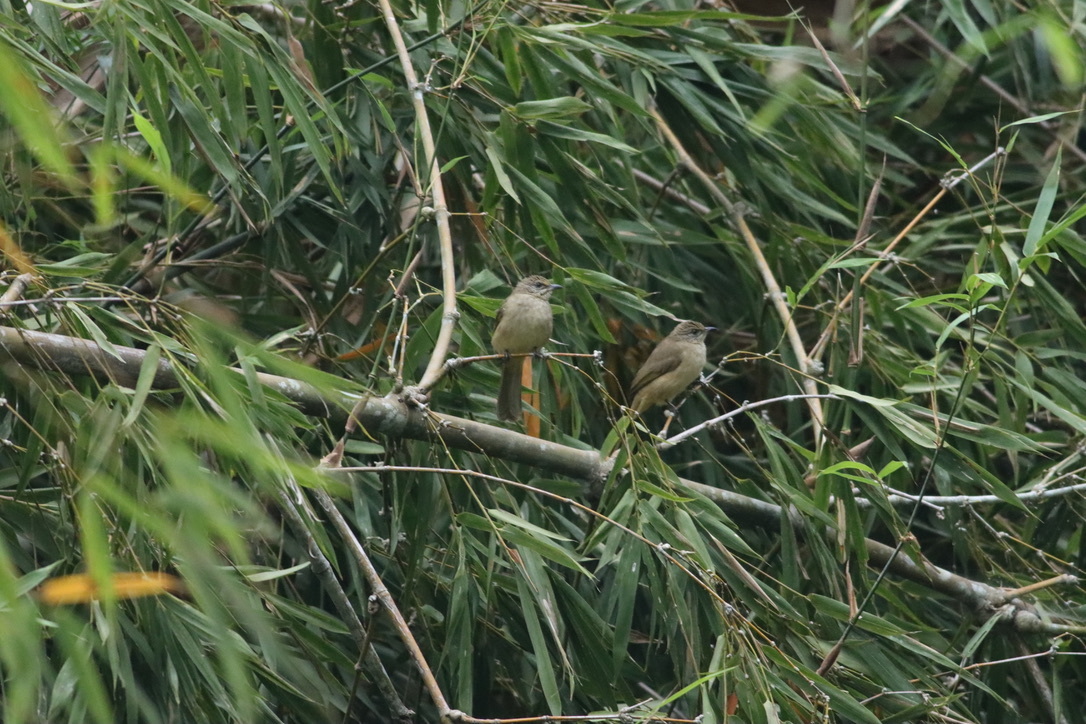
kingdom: Animalia
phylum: Chordata
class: Aves
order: Passeriformes
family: Pycnonotidae
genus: Pycnonotus
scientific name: Pycnonotus blanfordi
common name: Streak-eared bulbul
